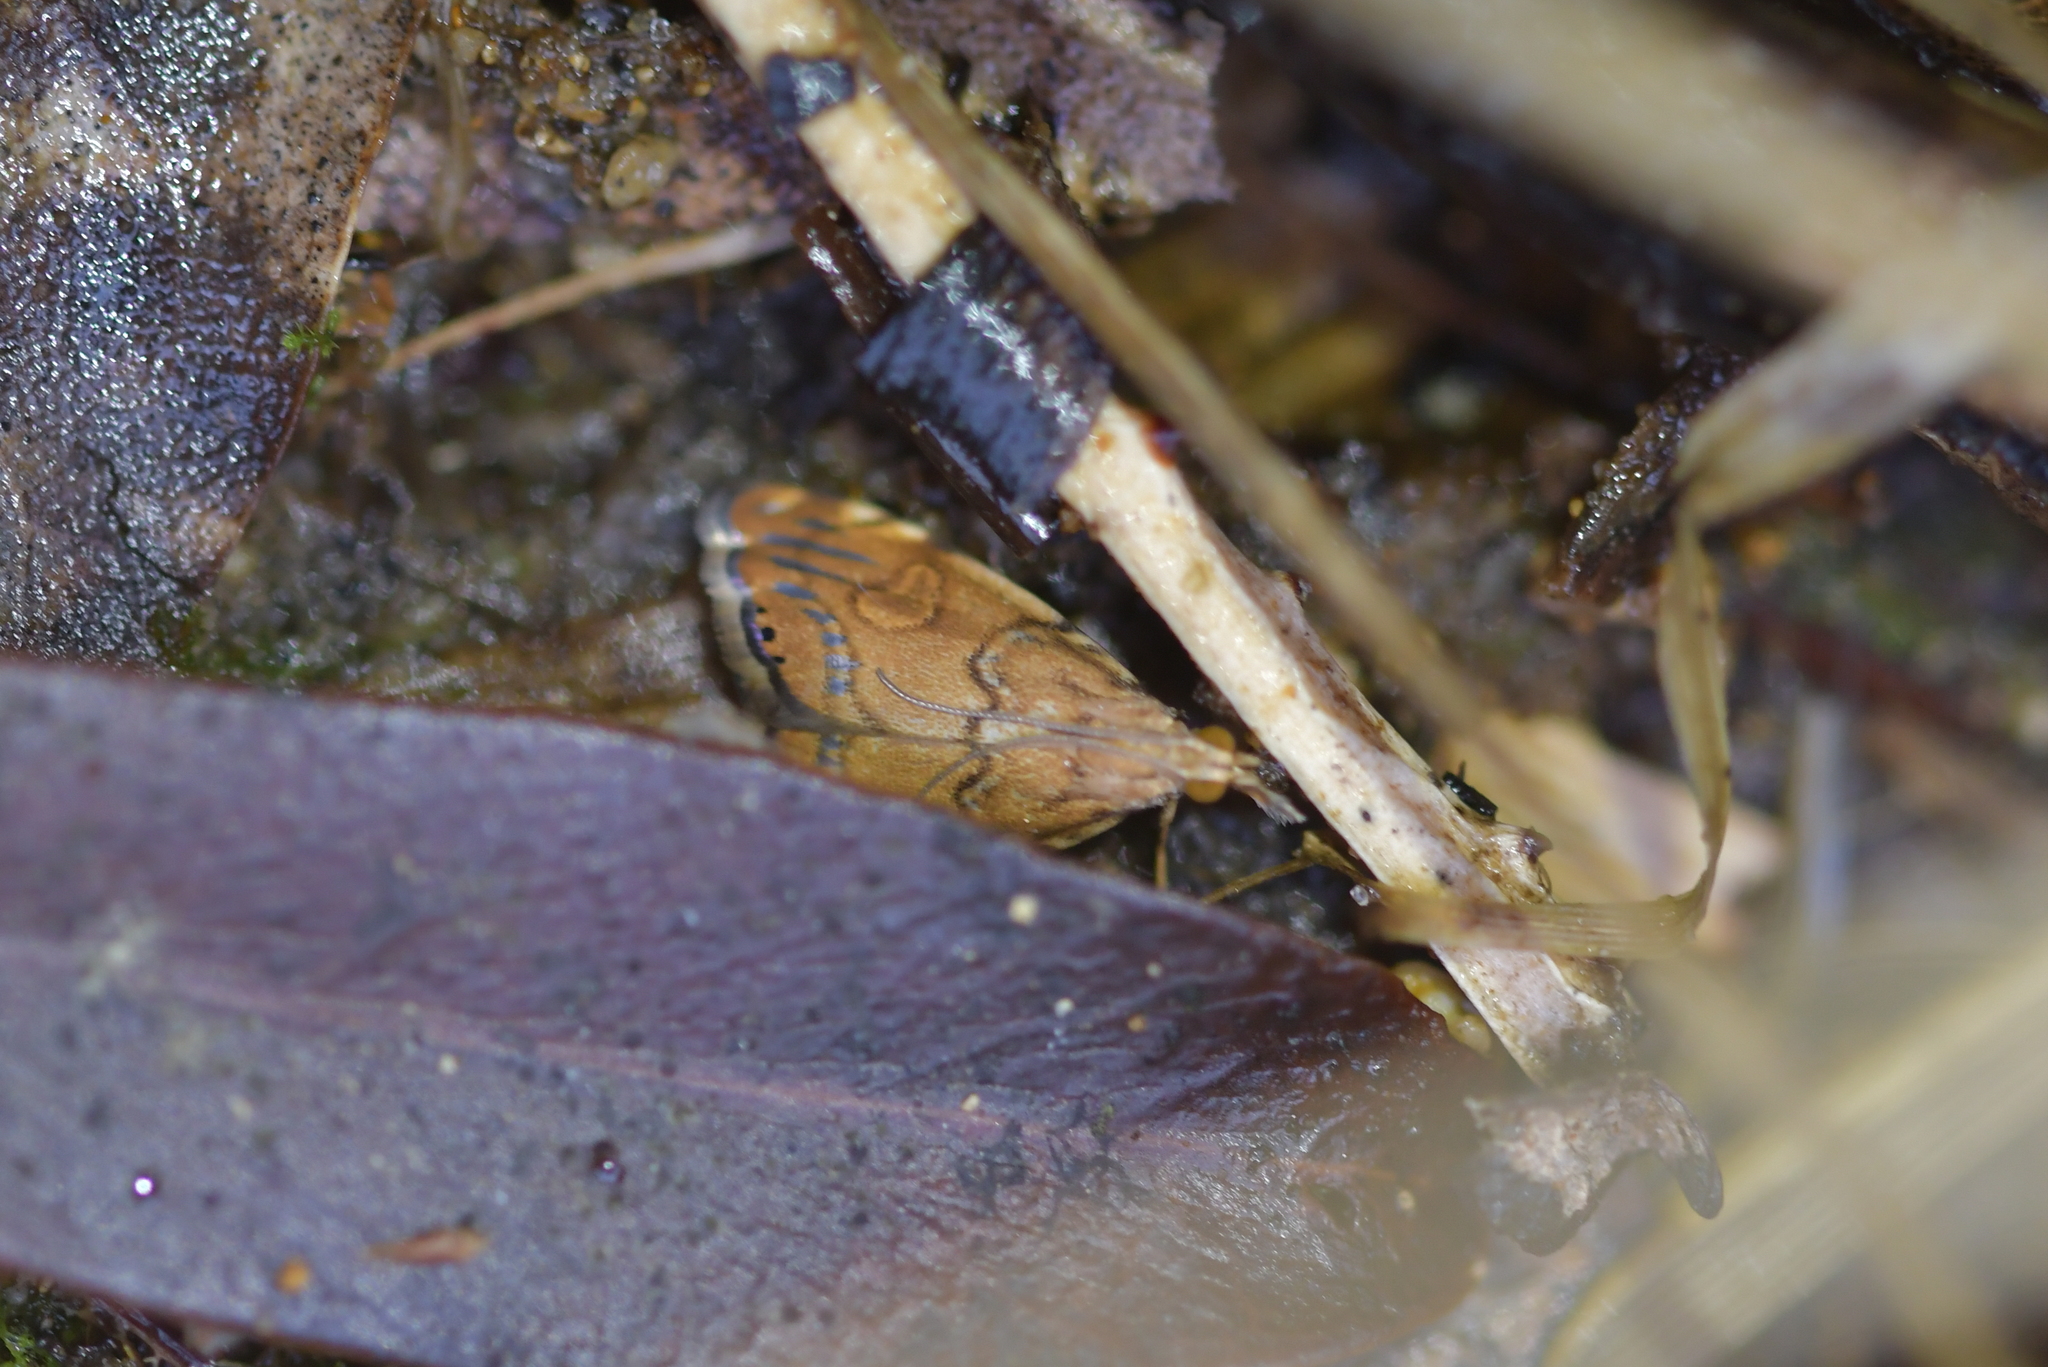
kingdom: Animalia
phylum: Arthropoda
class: Insecta
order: Lepidoptera
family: Crambidae
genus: Glaucocharis
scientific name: Glaucocharis leucoxantha
